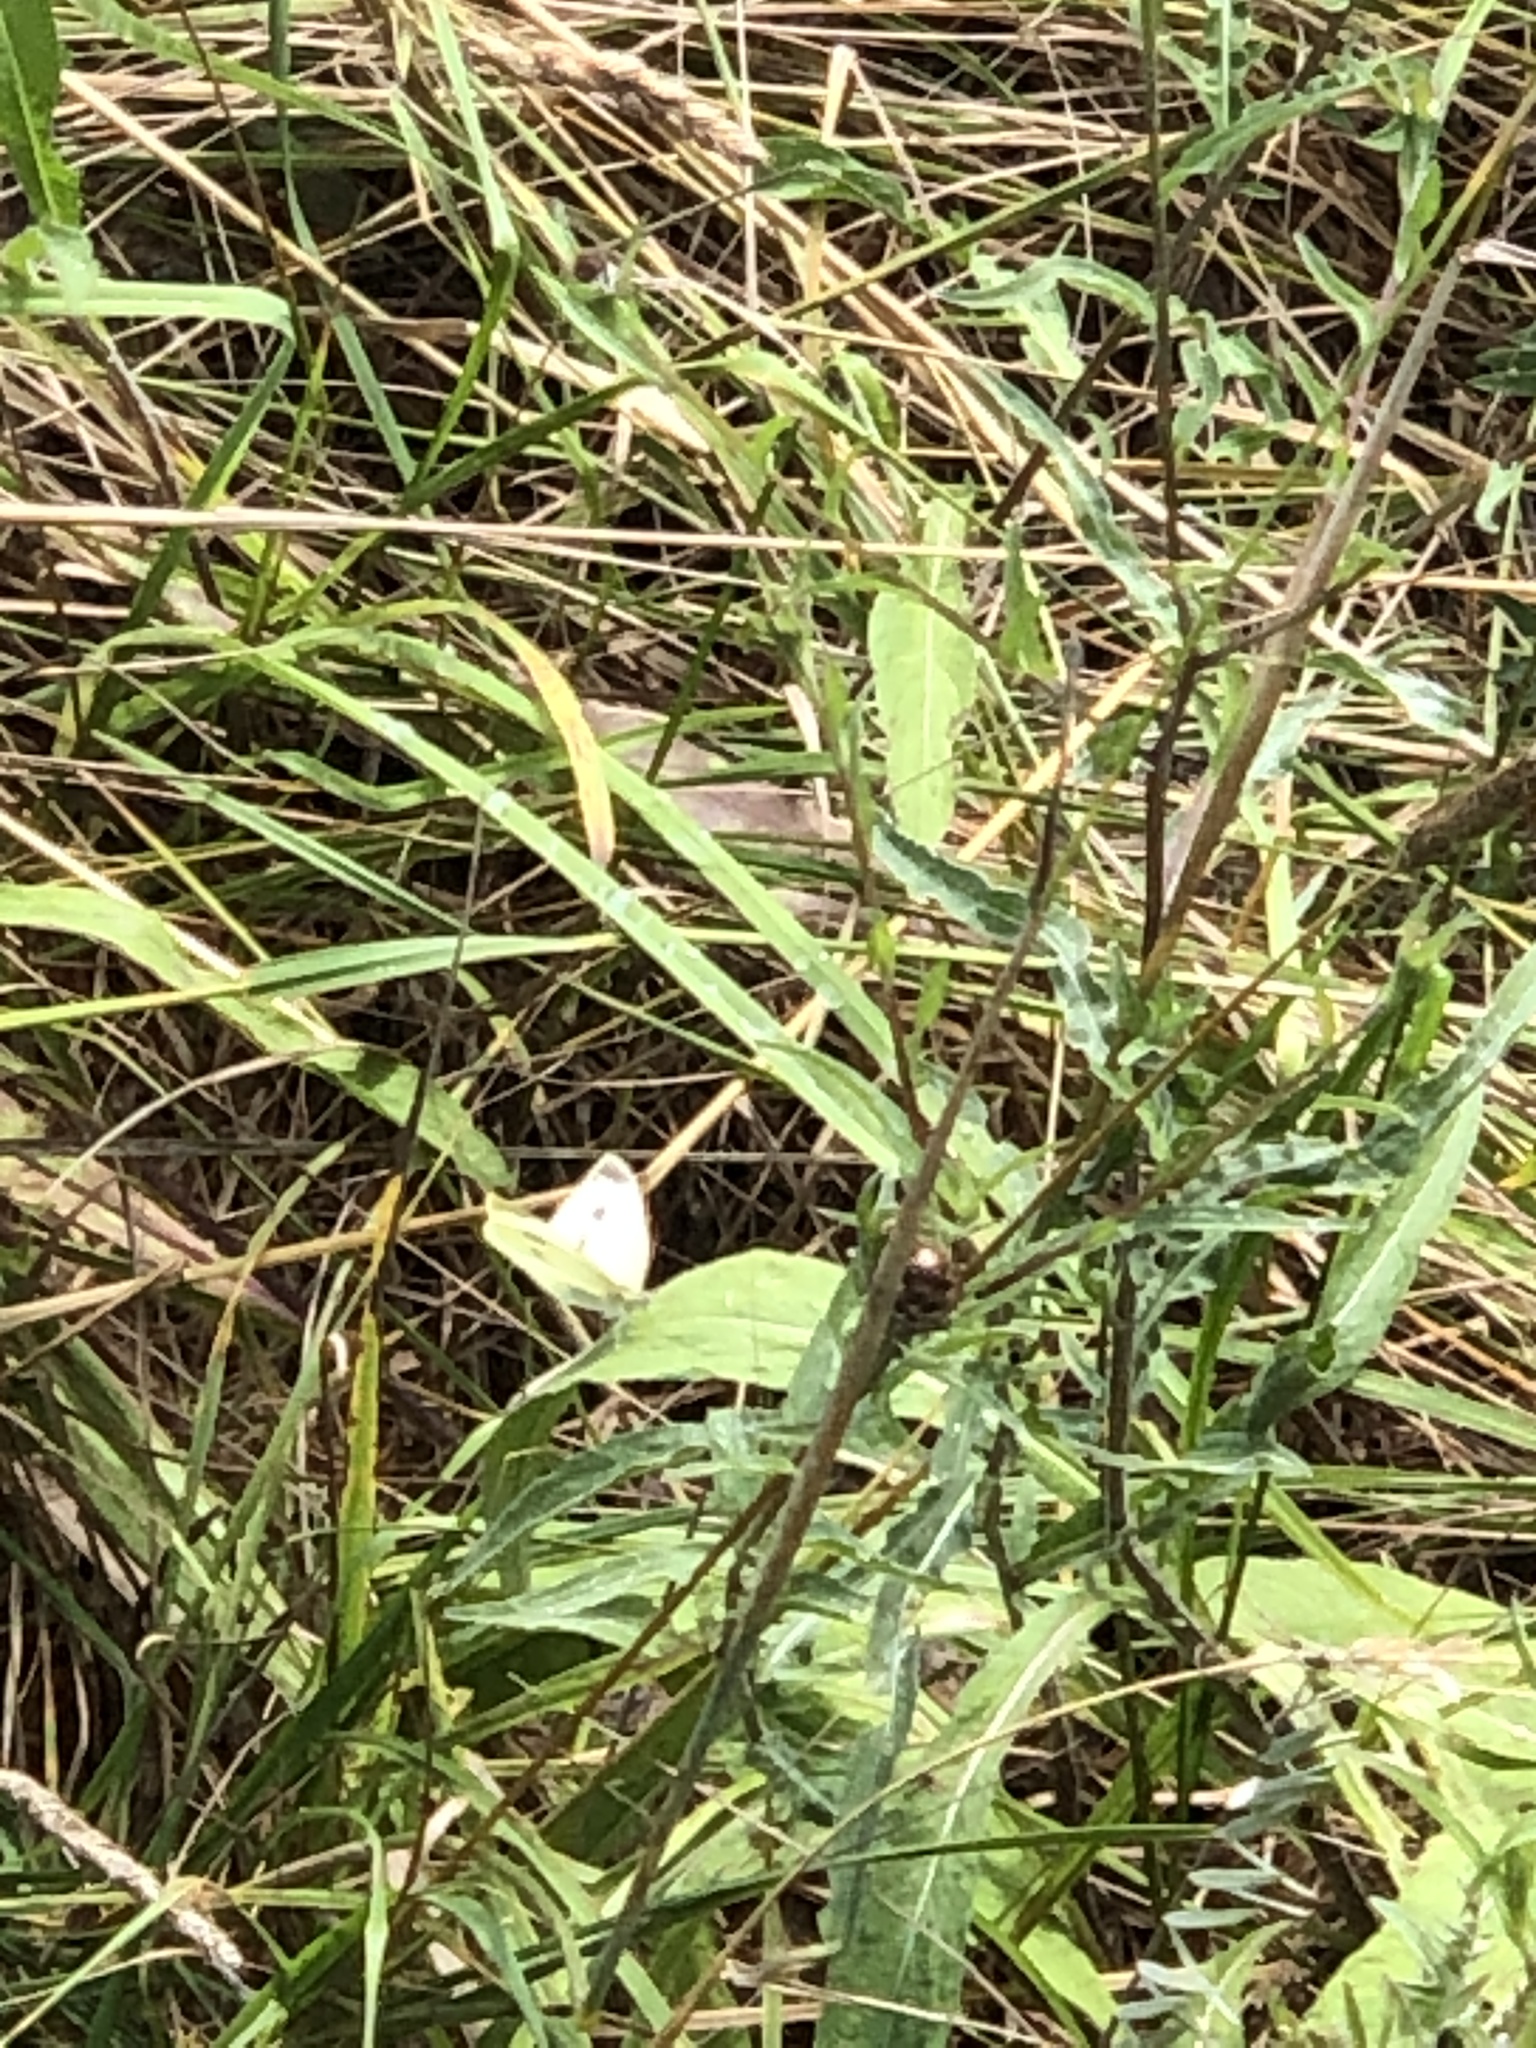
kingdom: Animalia
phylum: Arthropoda
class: Insecta
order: Lepidoptera
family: Pieridae
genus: Pieris
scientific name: Pieris rapae
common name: Small white
